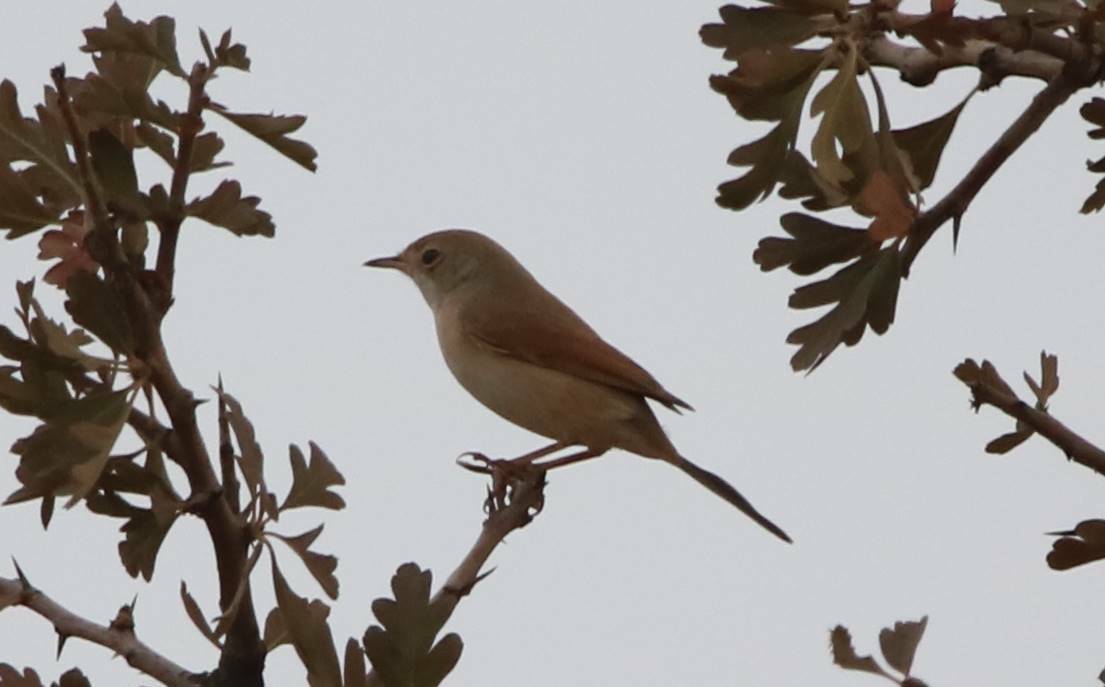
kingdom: Animalia
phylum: Chordata
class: Aves
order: Passeriformes
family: Sylviidae
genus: Sylvia
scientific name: Sylvia communis
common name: Common whitethroat
